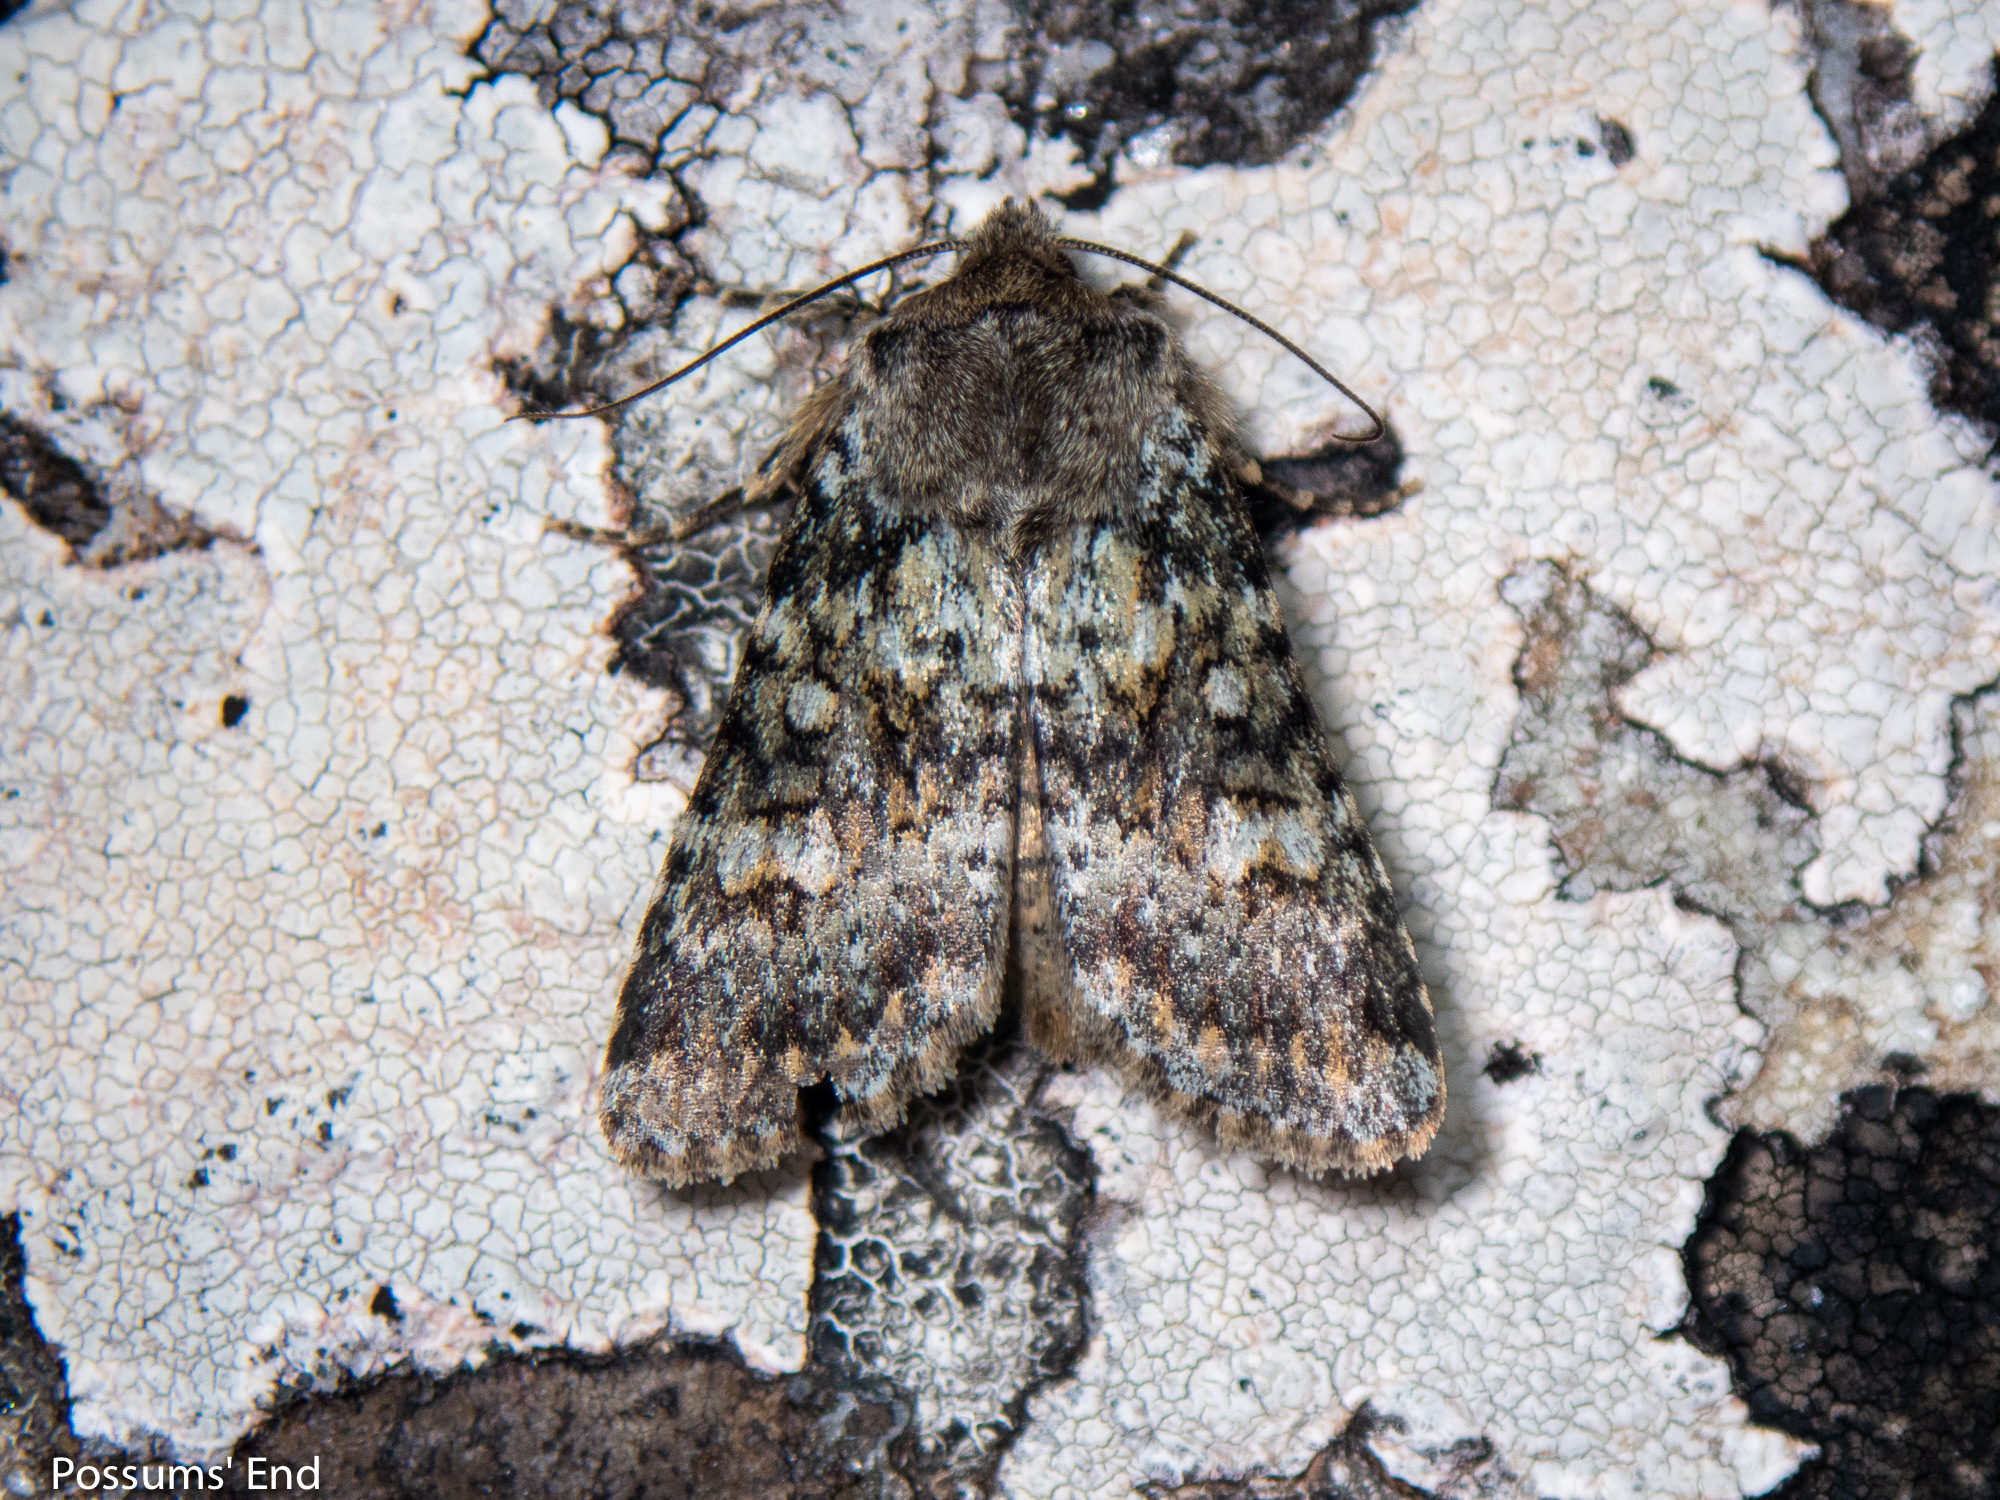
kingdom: Animalia
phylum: Arthropoda
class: Insecta
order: Lepidoptera
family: Noctuidae
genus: Ichneutica
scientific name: Ichneutica
